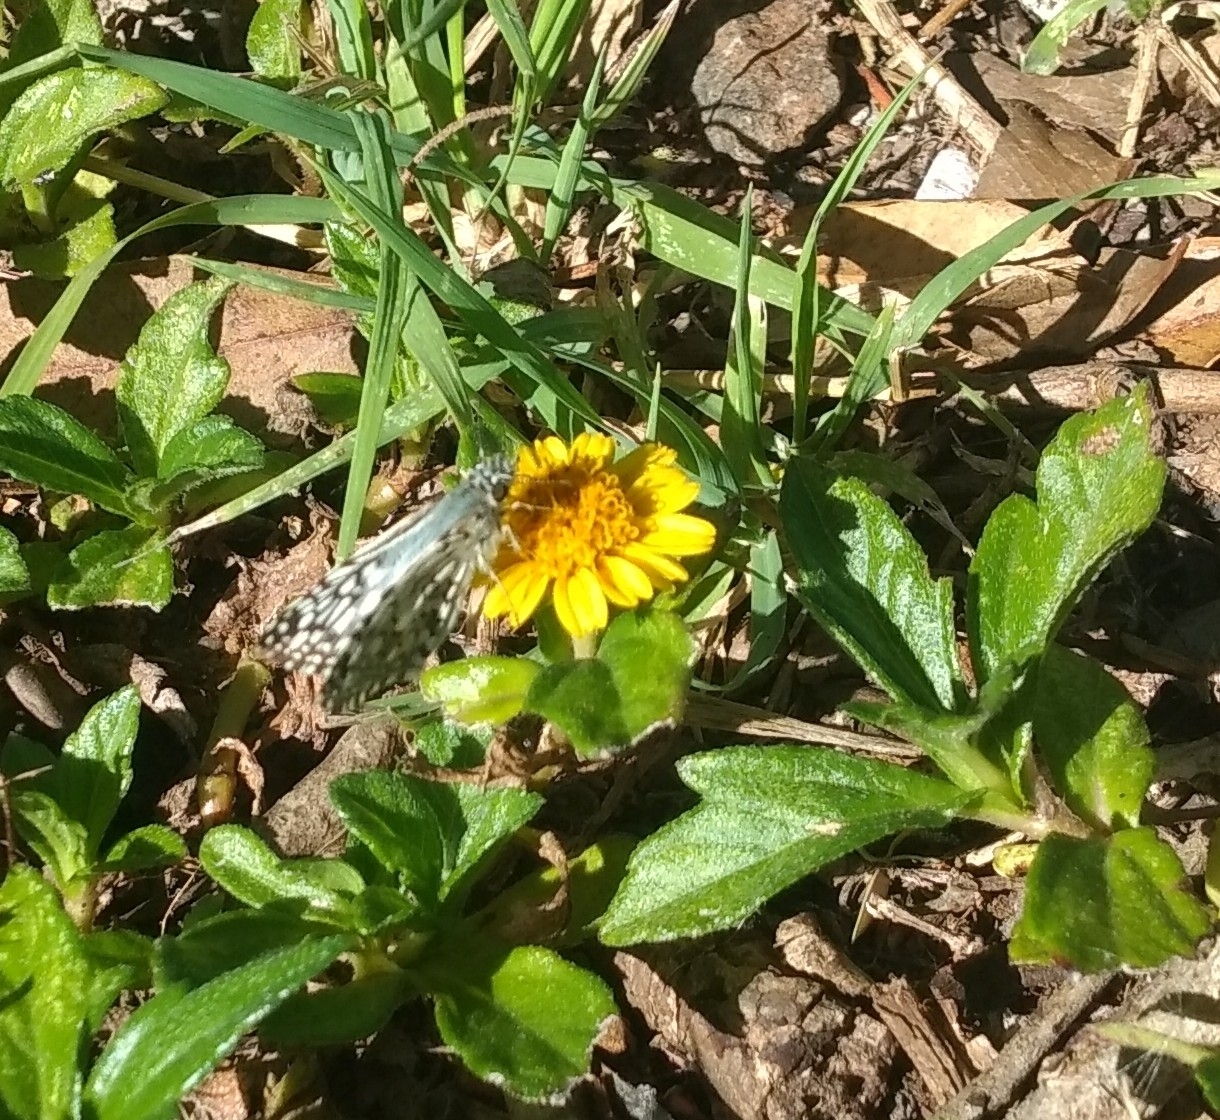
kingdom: Animalia
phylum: Arthropoda
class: Insecta
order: Lepidoptera
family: Hesperiidae
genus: Pyrgus
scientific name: Pyrgus oileus
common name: Tropical checkered-skipper
